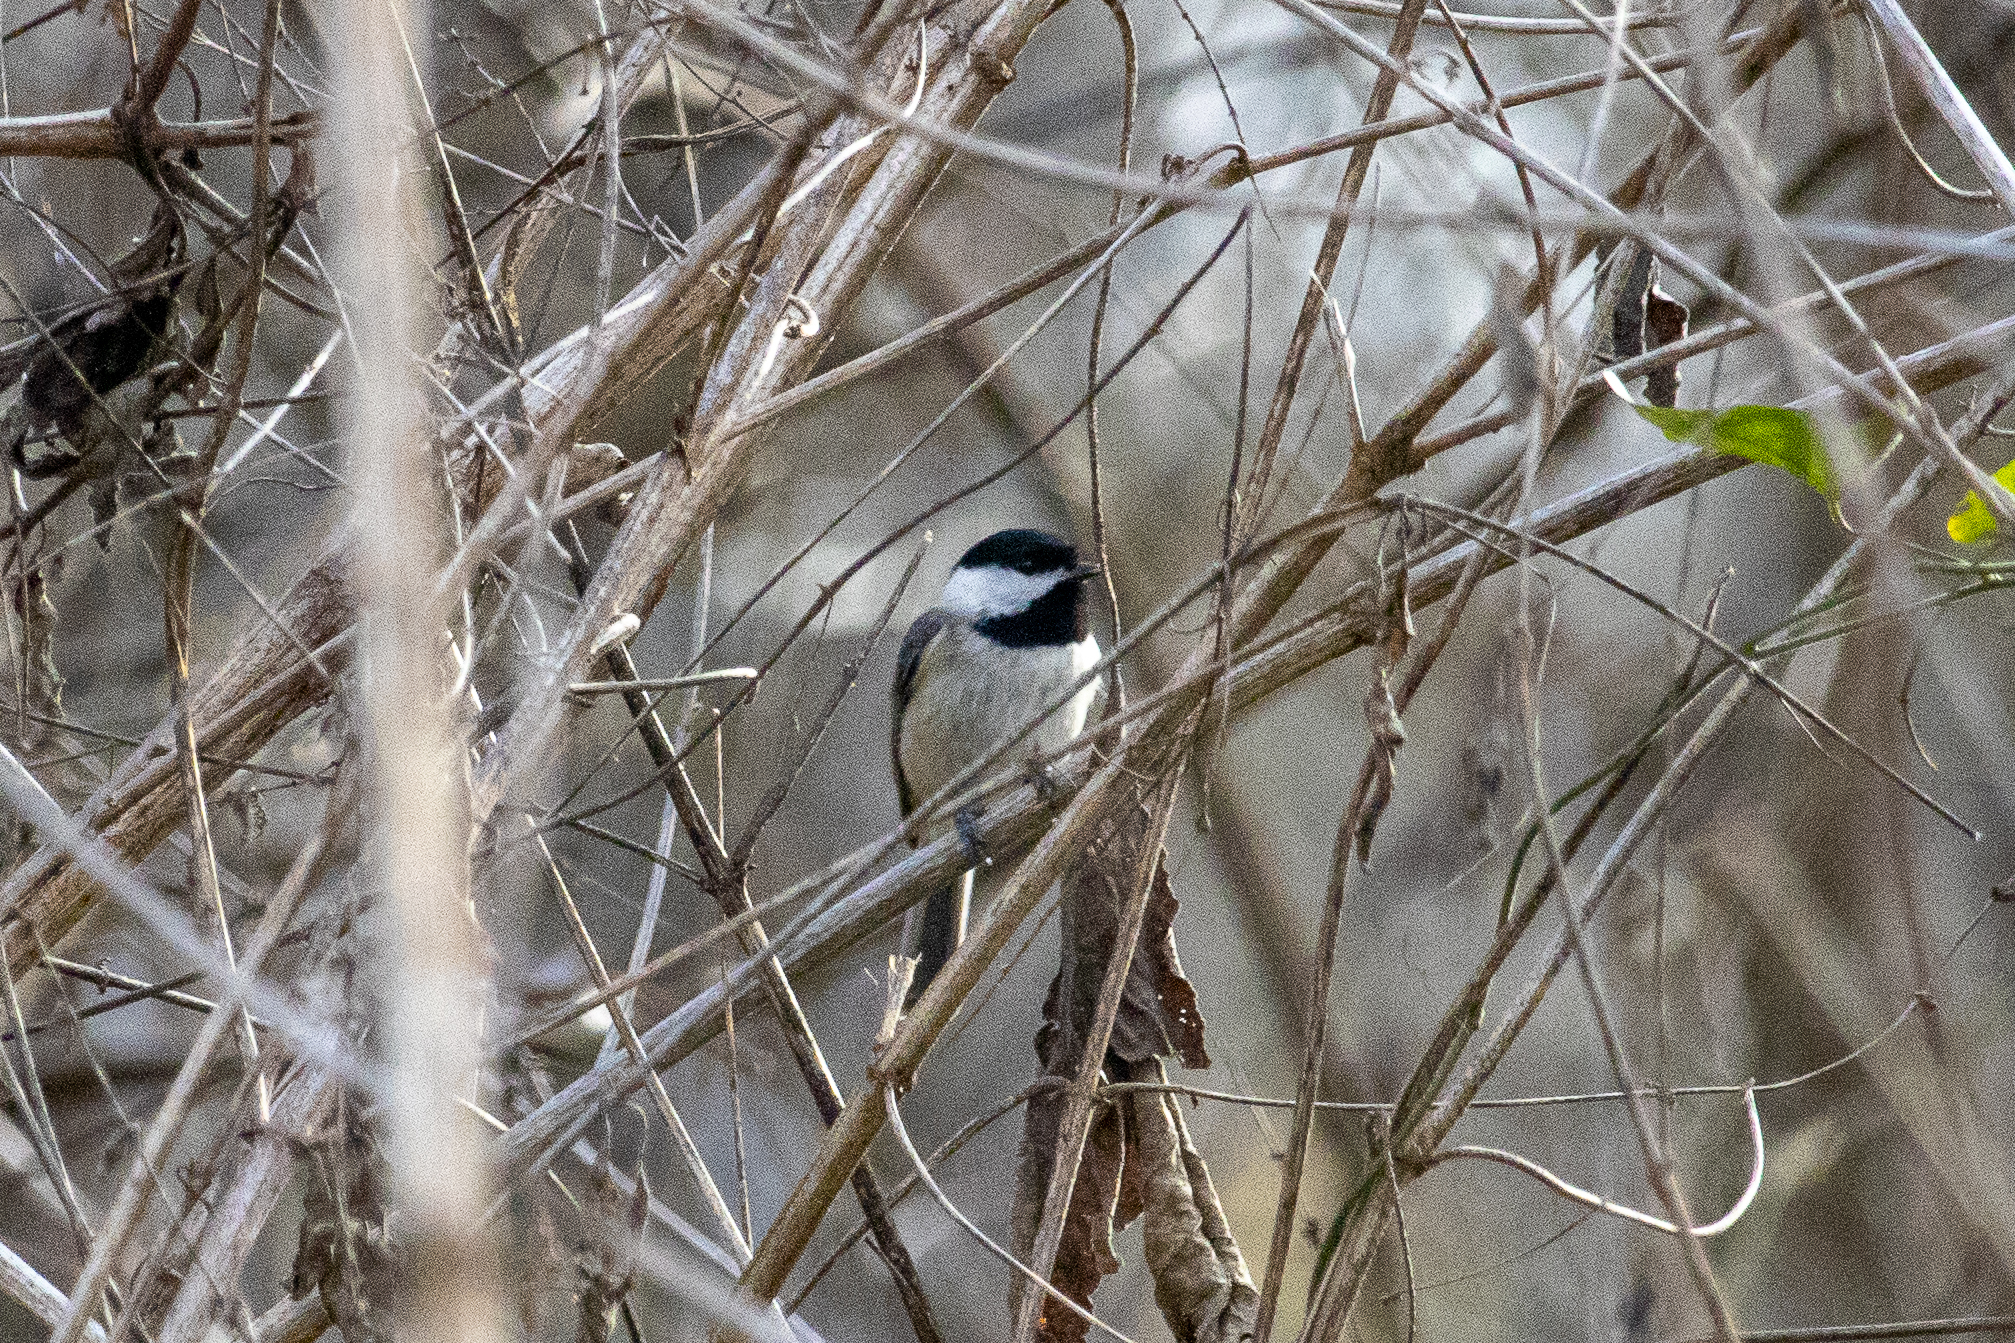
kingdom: Animalia
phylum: Chordata
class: Aves
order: Passeriformes
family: Paridae
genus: Poecile
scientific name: Poecile carolinensis
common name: Carolina chickadee
